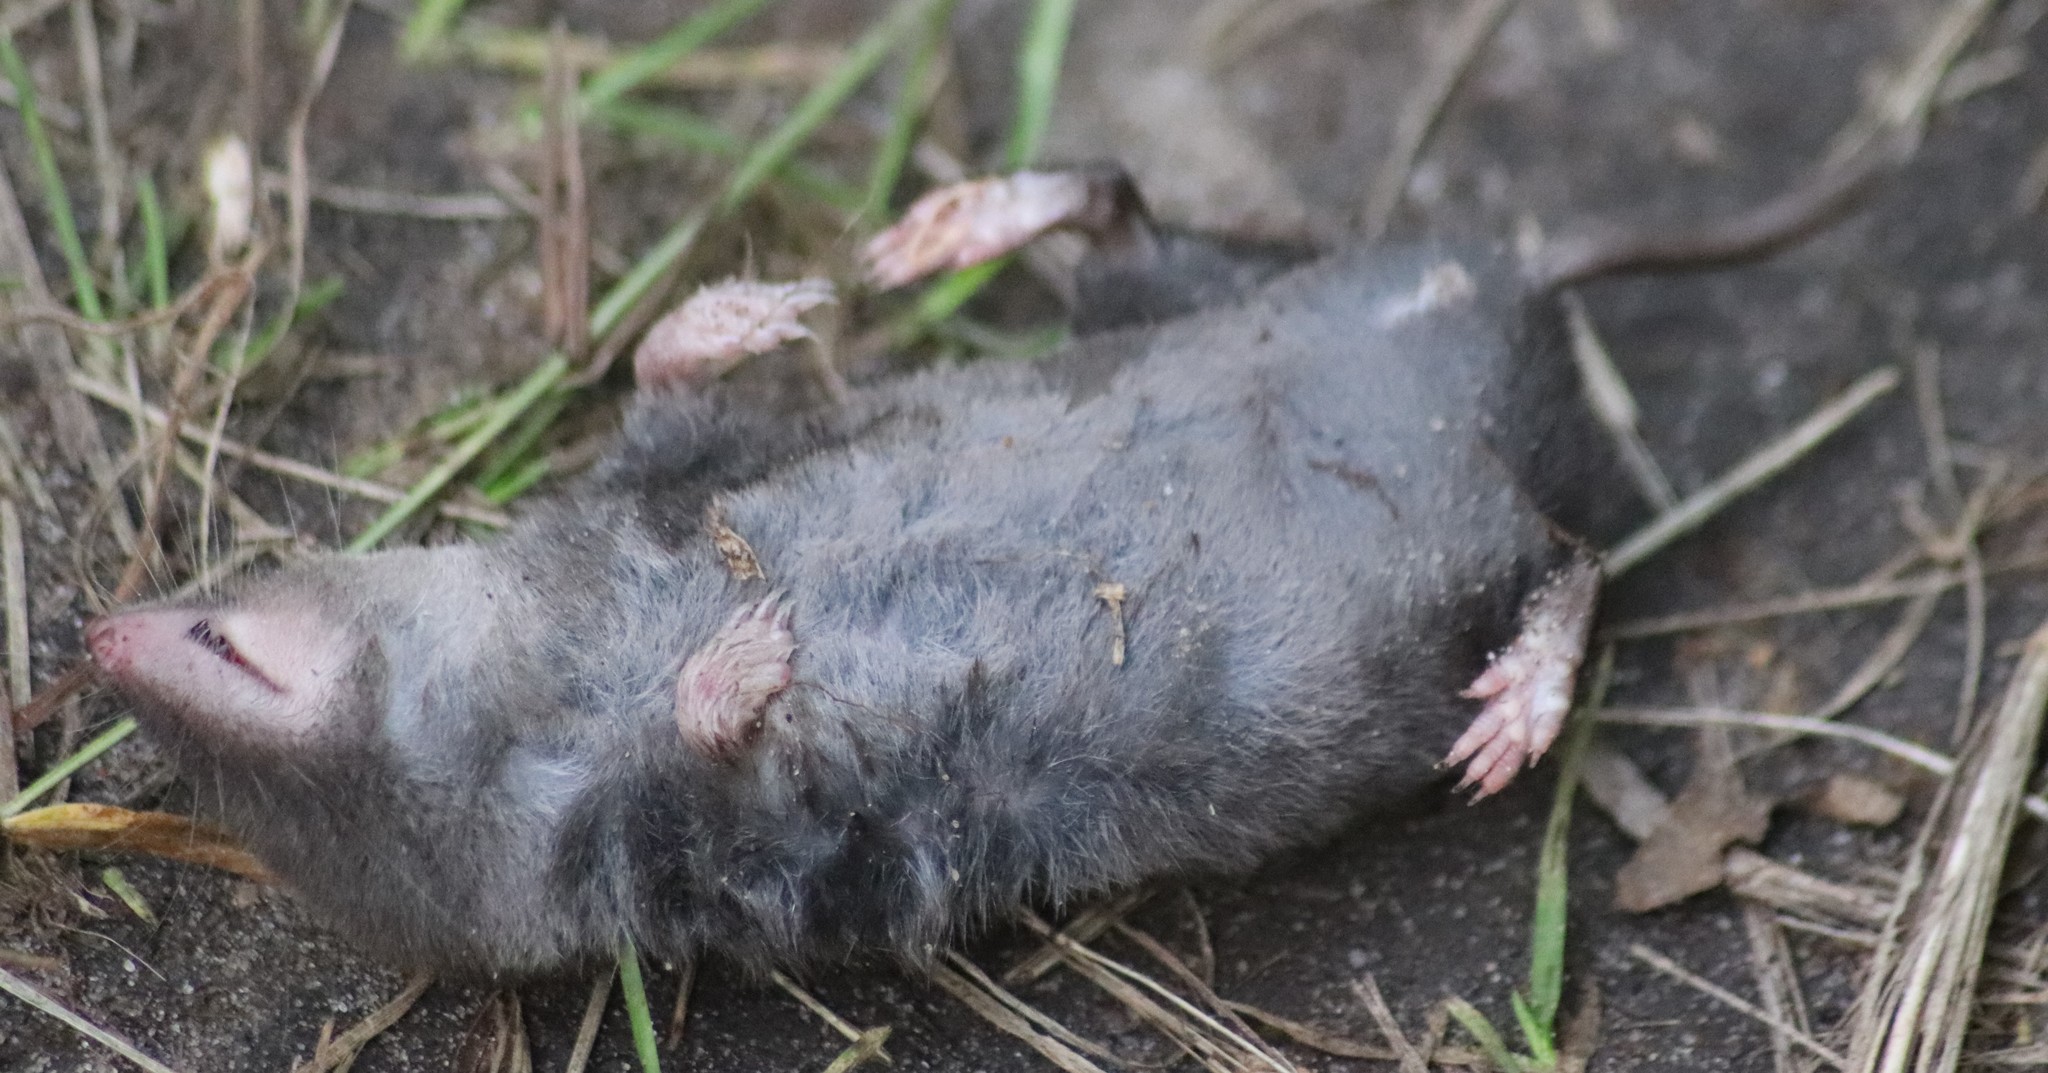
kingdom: Animalia
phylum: Chordata
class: Mammalia
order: Soricomorpha
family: Soricidae
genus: Blarina
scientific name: Blarina brevicauda
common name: Northern short-tailed shrew
